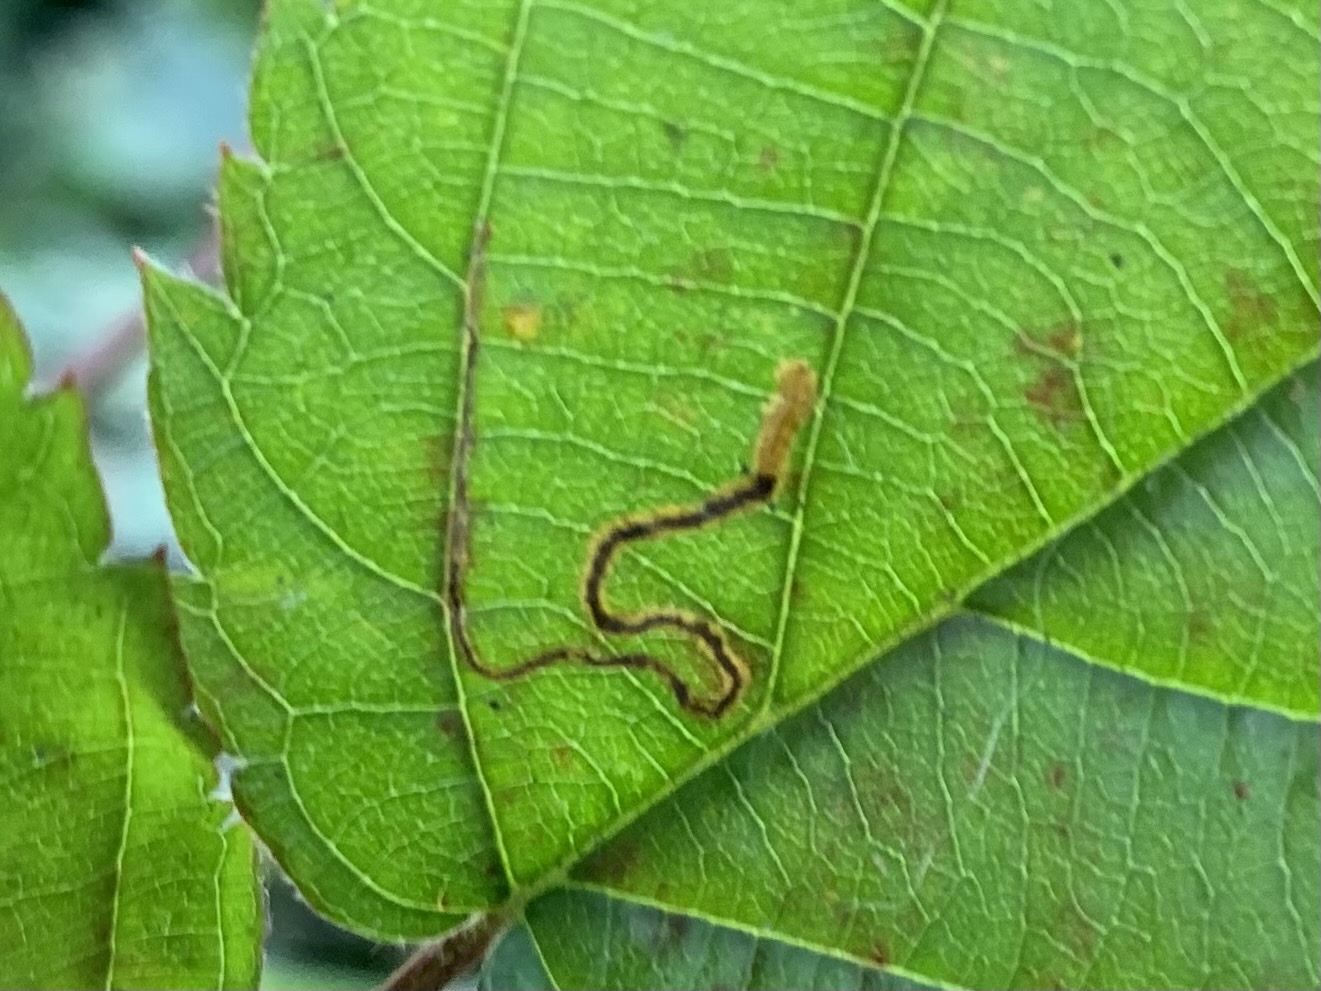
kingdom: Animalia
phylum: Arthropoda
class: Insecta
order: Lepidoptera
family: Nepticulidae
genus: Stigmella
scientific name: Stigmella villosella
